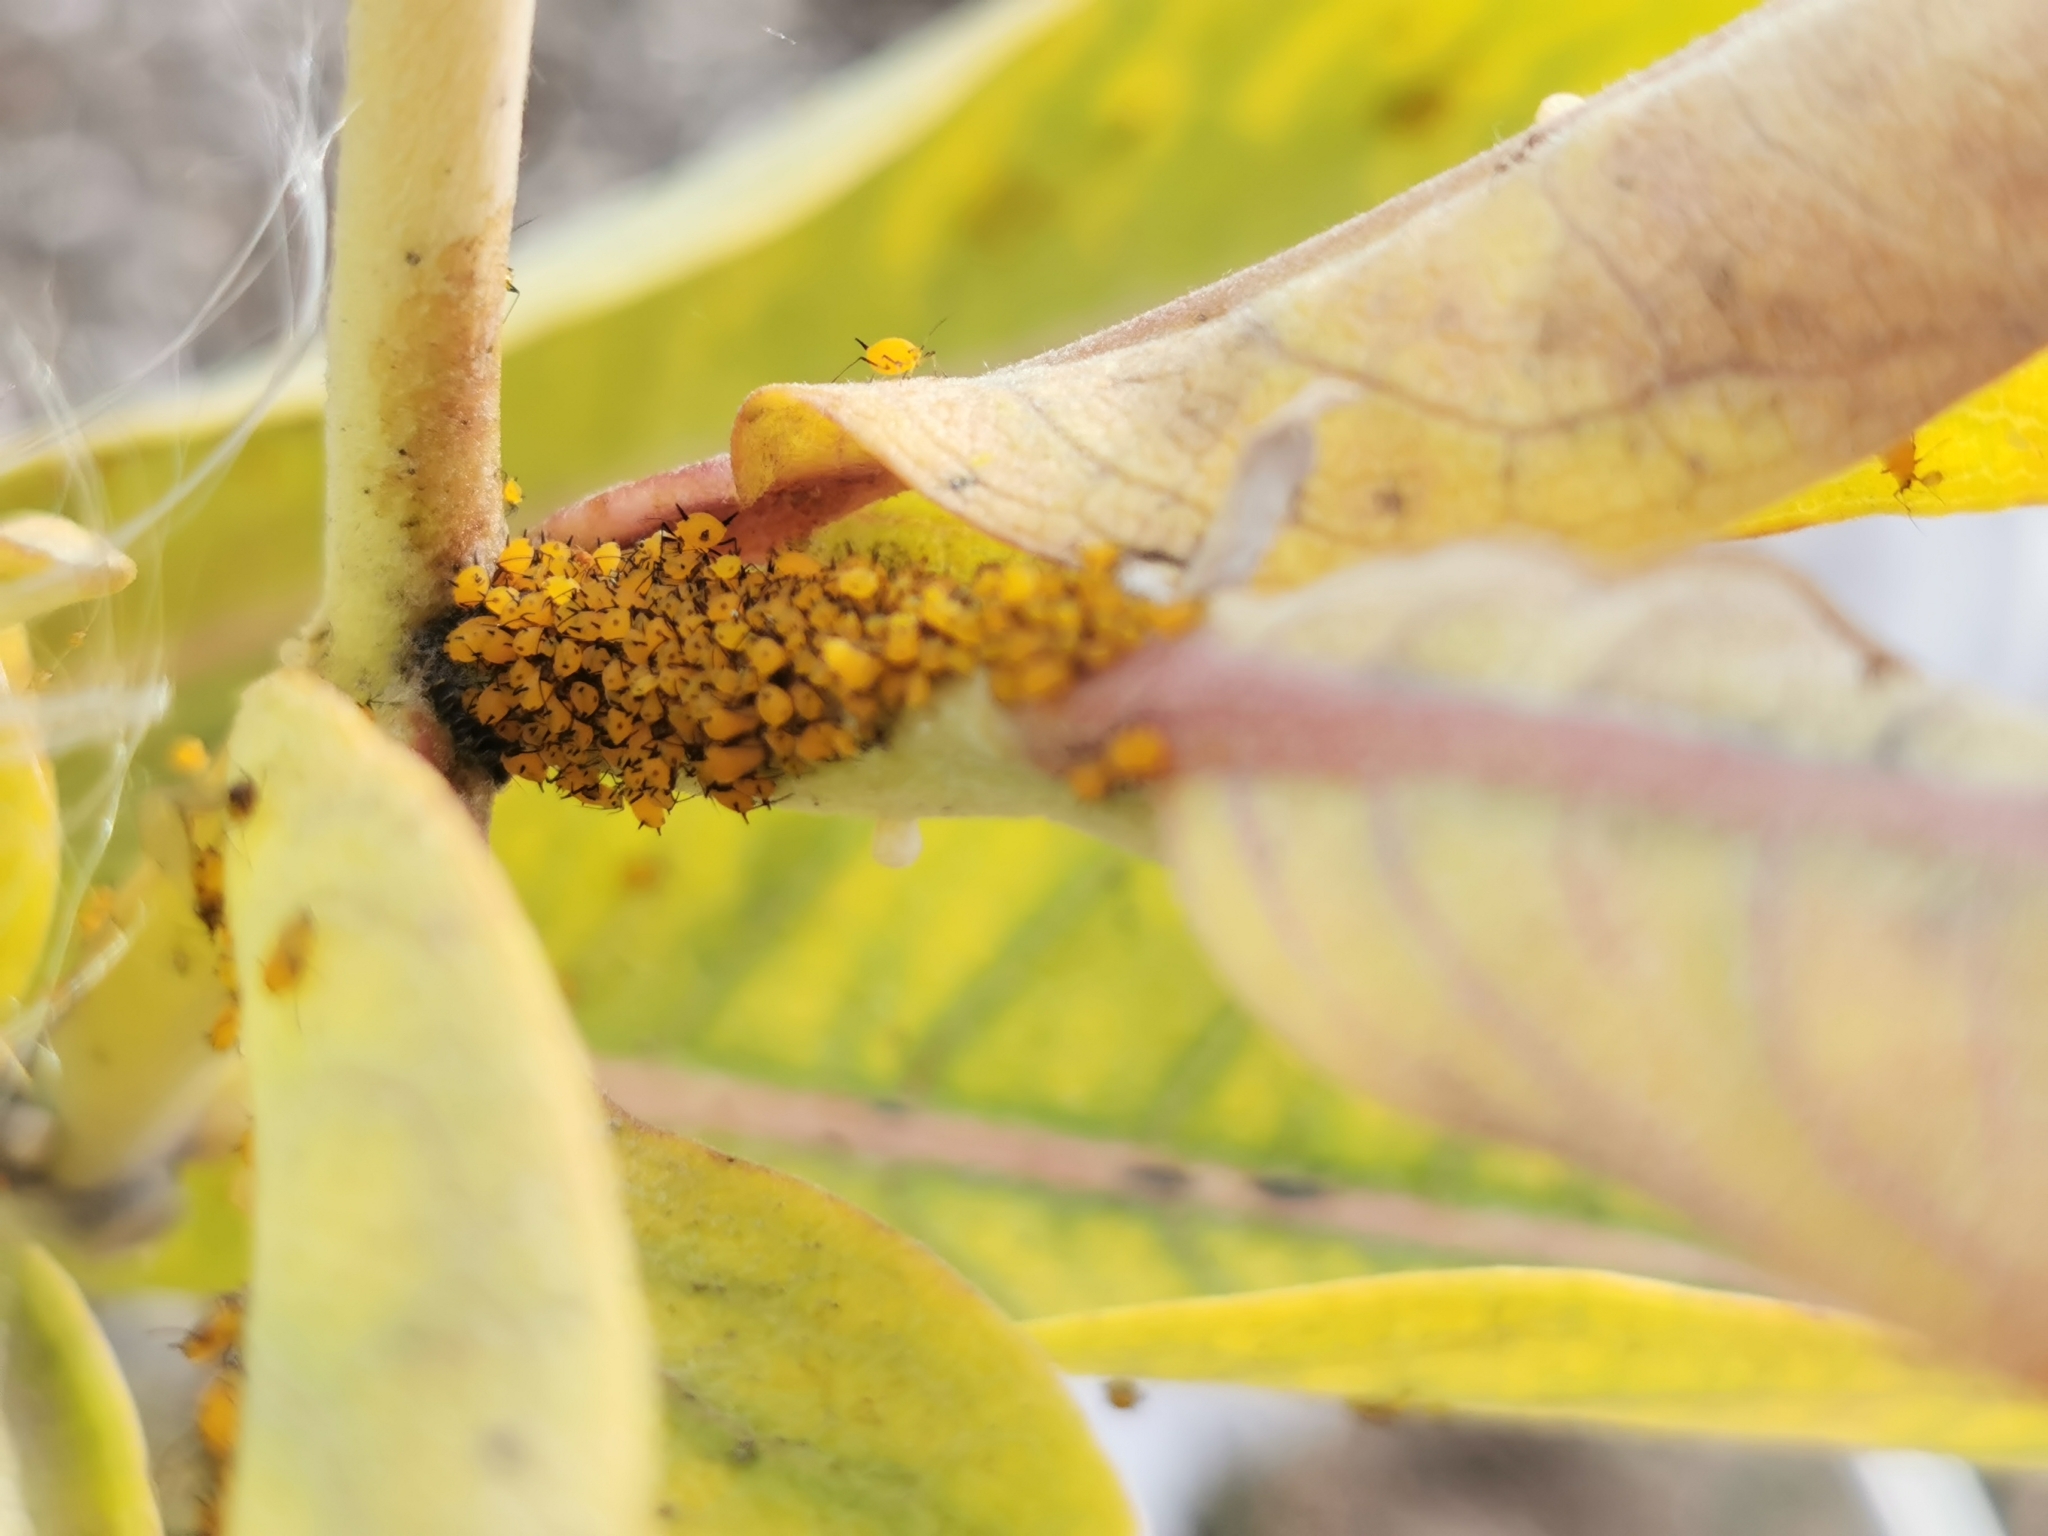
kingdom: Animalia
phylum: Arthropoda
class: Insecta
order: Hemiptera
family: Aphididae
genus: Aphis
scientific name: Aphis nerii
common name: Oleander aphid
